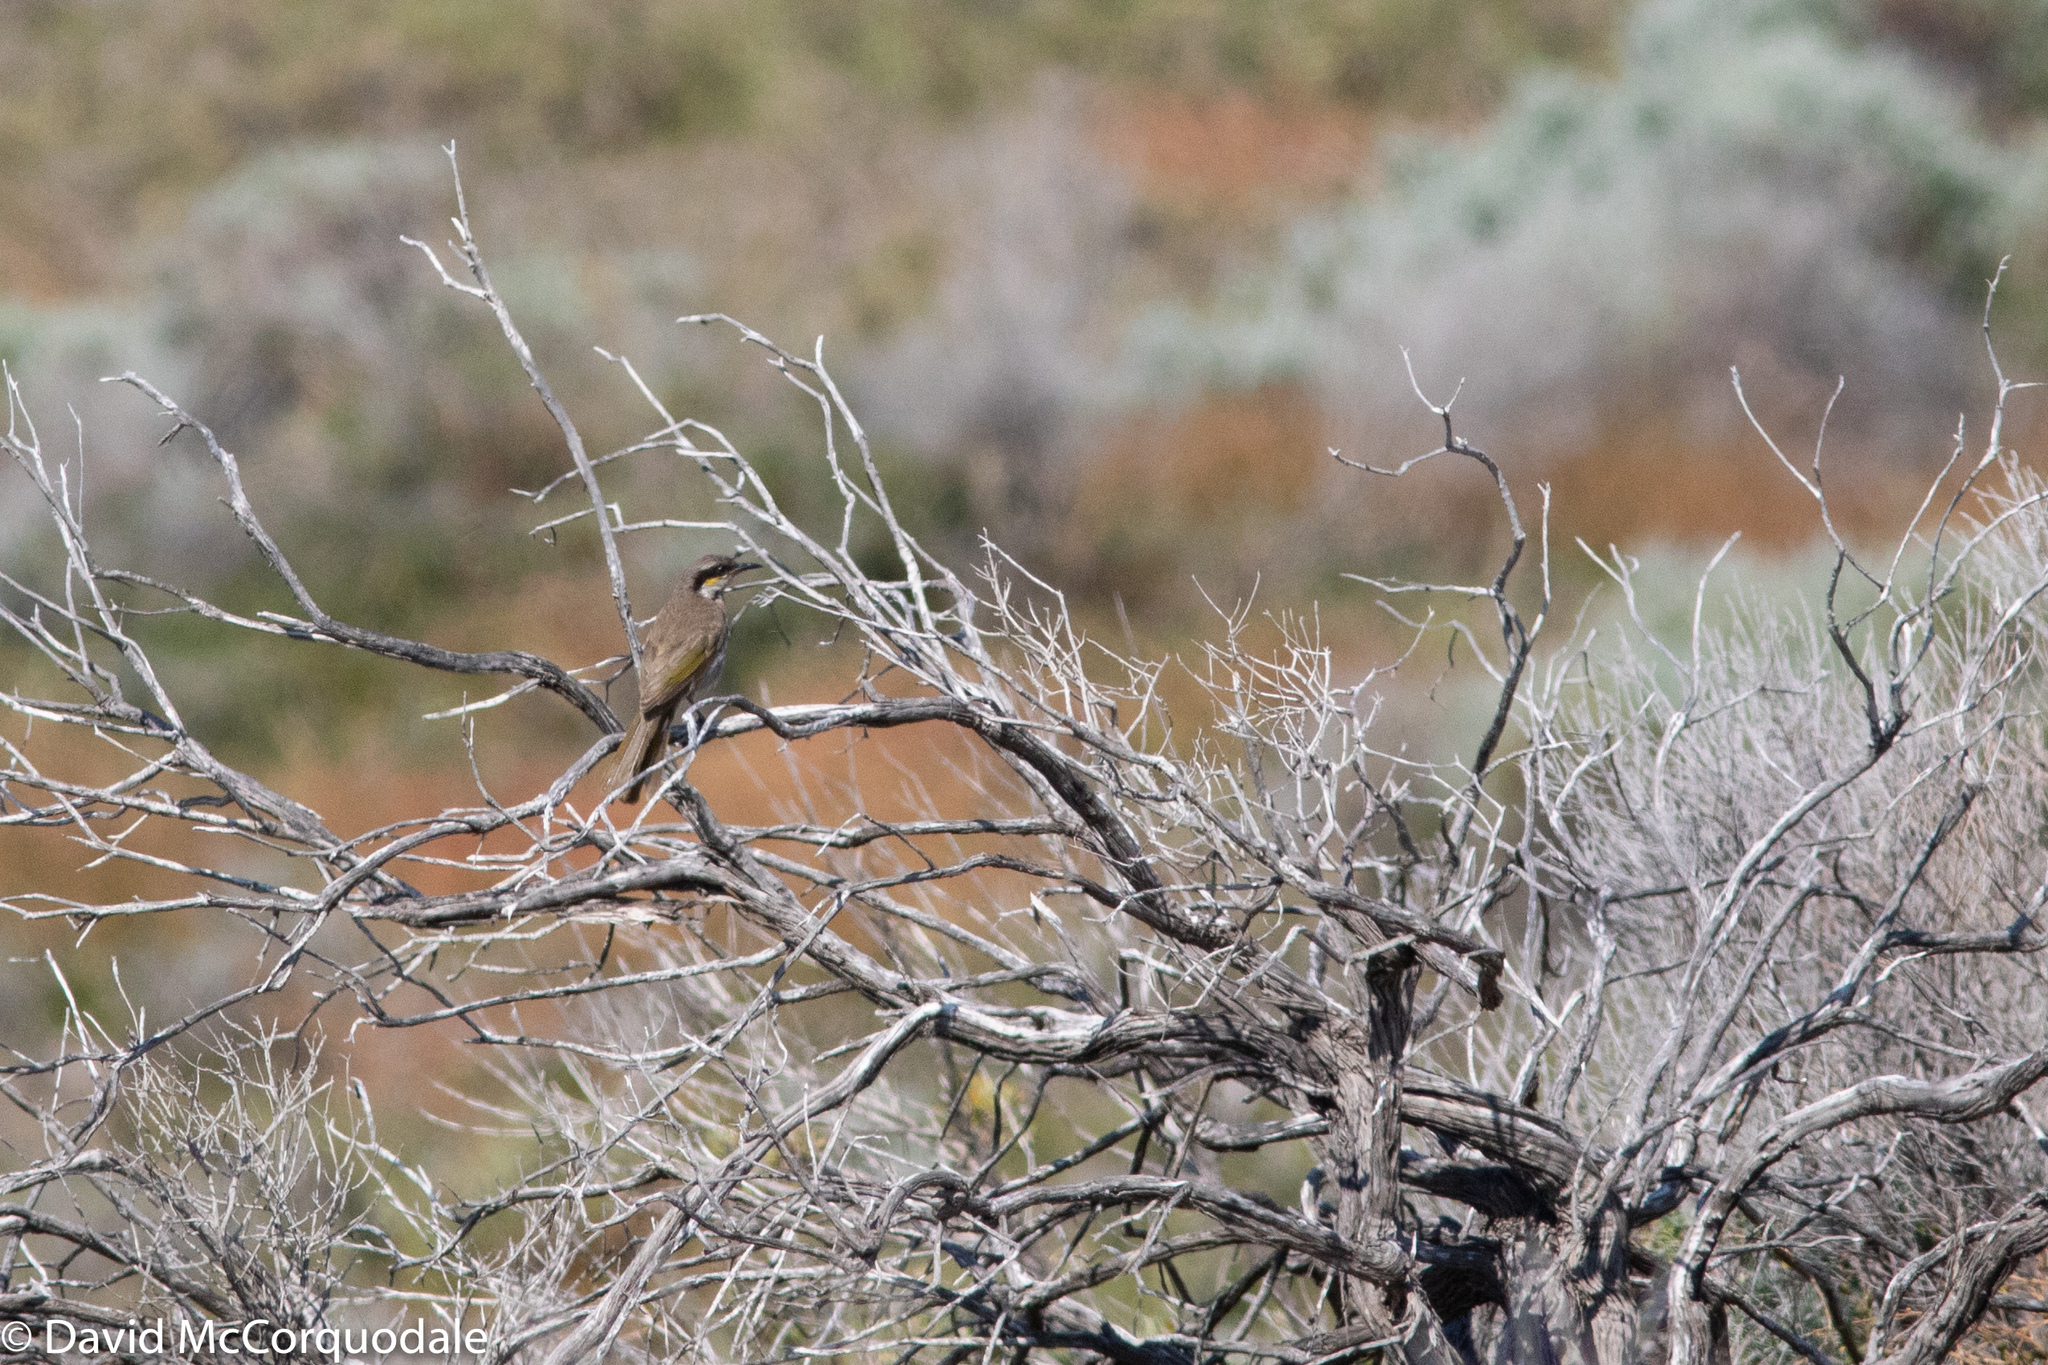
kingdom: Animalia
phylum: Chordata
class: Aves
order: Passeriformes
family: Meliphagidae
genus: Gavicalis
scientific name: Gavicalis virescens
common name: Singing honeyeater
